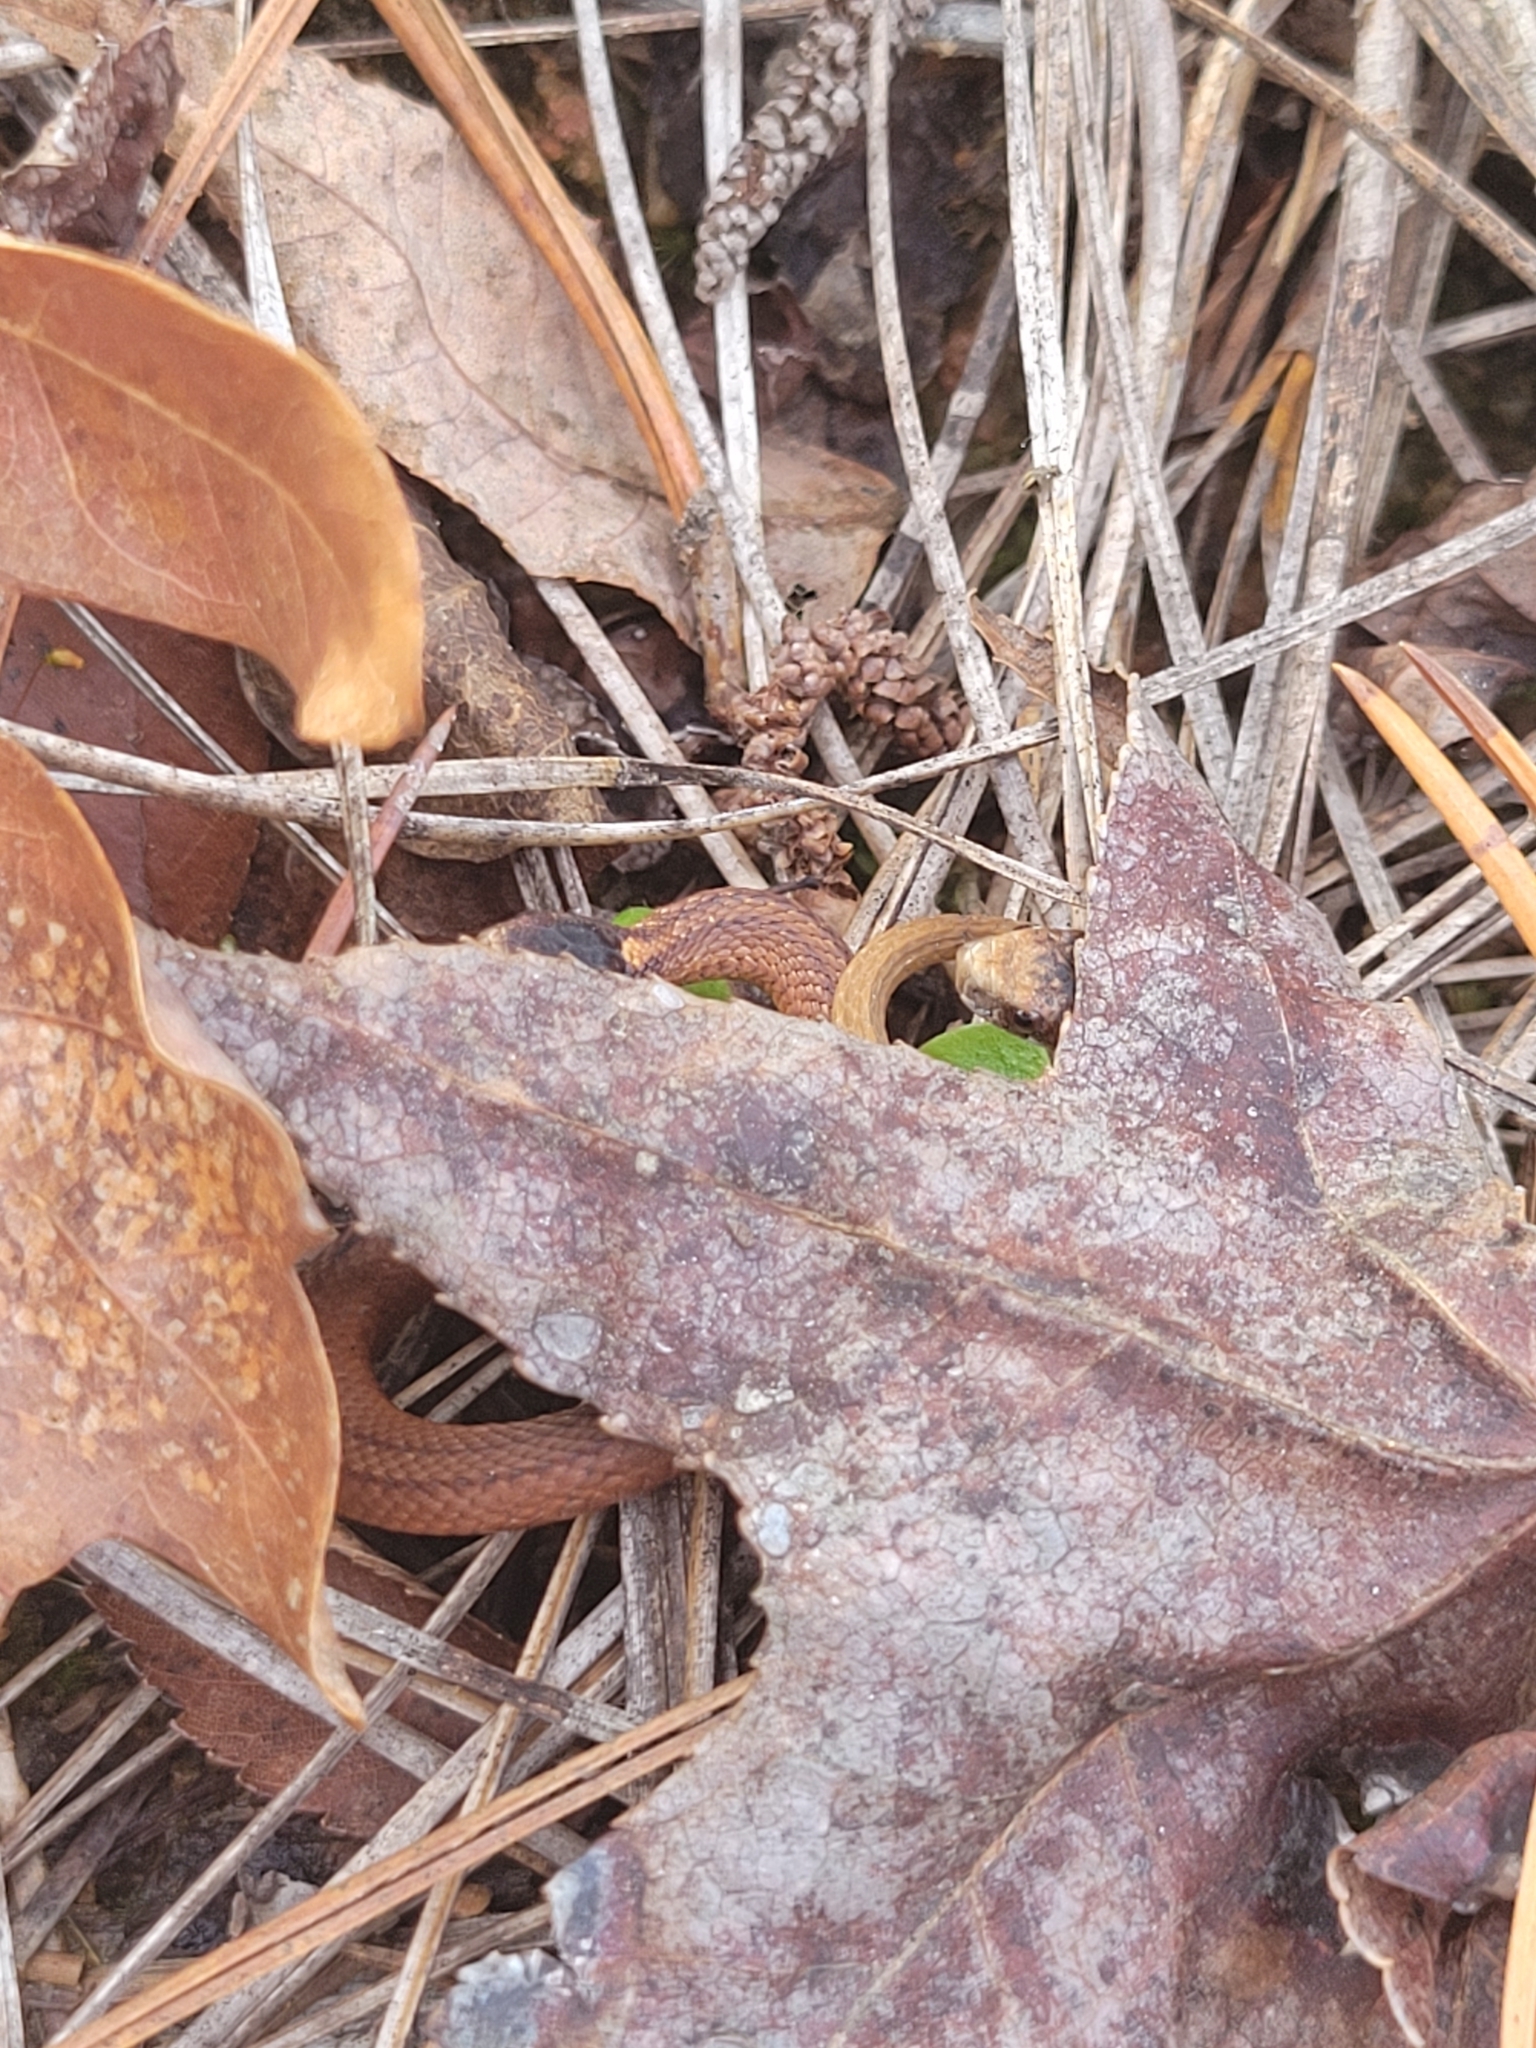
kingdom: Animalia
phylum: Chordata
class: Squamata
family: Colubridae
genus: Storeria
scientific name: Storeria occipitomaculata
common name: Redbelly snake
